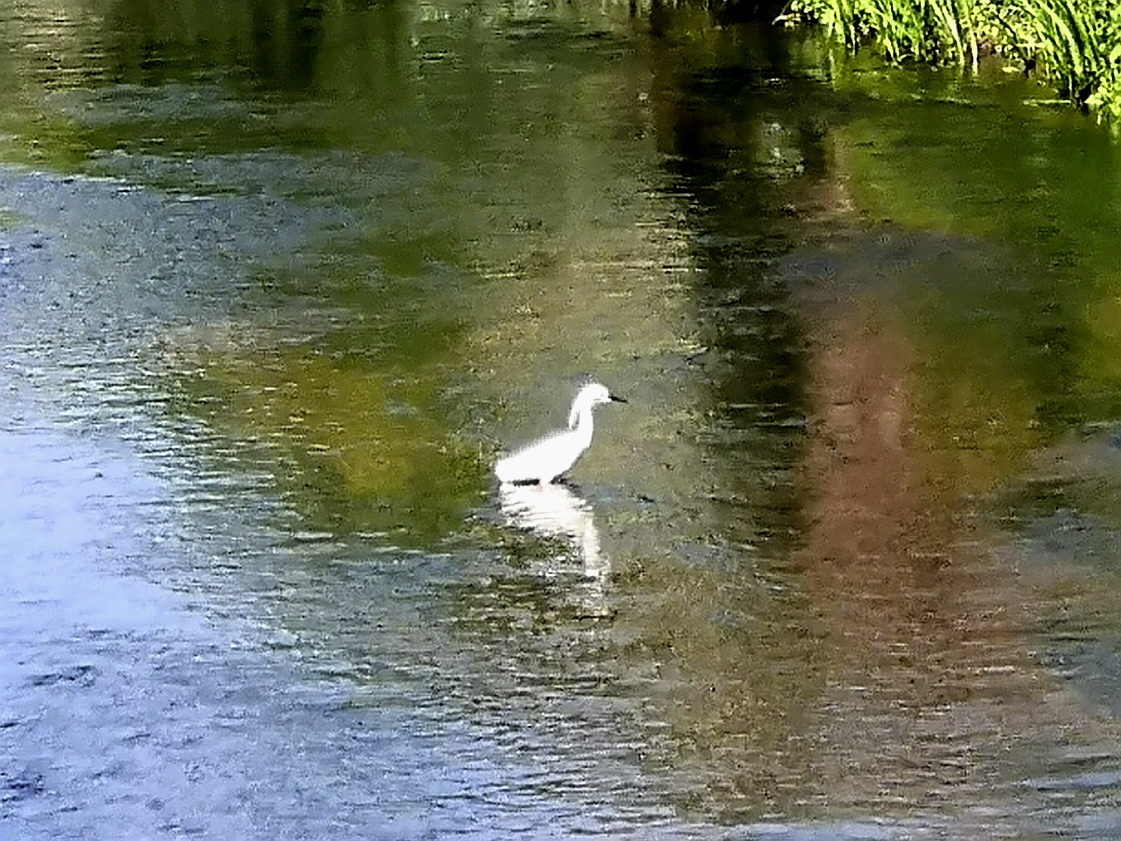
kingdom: Animalia
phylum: Chordata
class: Aves
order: Pelecaniformes
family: Ardeidae
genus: Egretta
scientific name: Egretta garzetta
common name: Little egret
